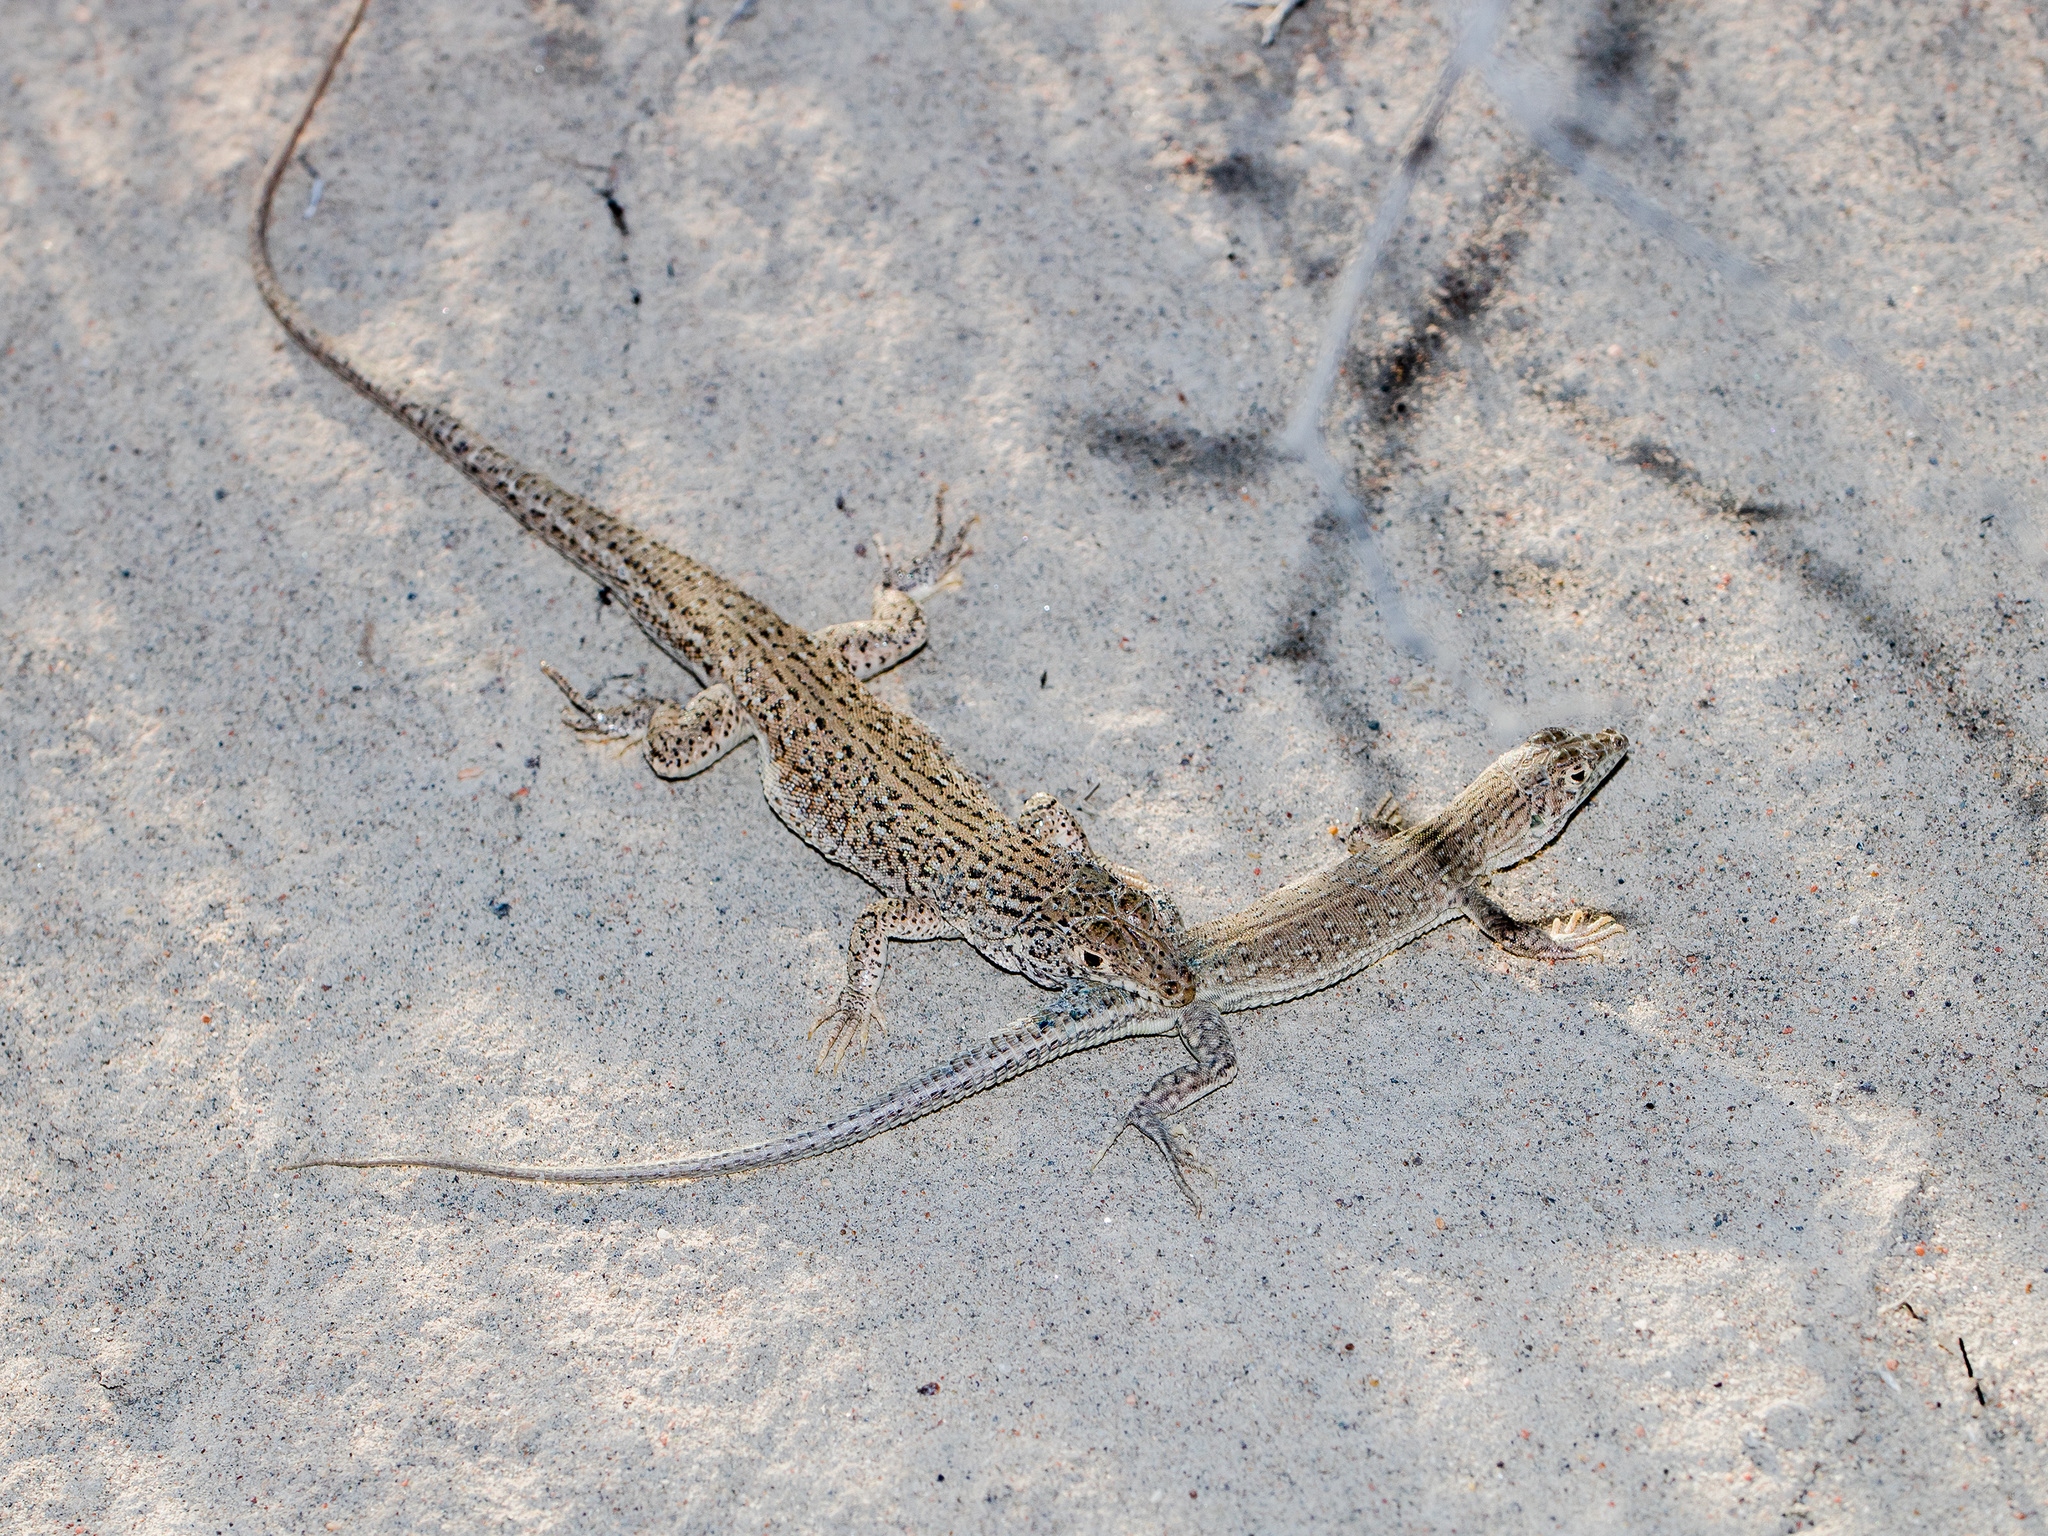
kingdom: Animalia
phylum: Chordata
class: Squamata
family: Lacertidae
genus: Eremias
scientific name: Eremias intermedia
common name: Aralo-caspian racerunner
